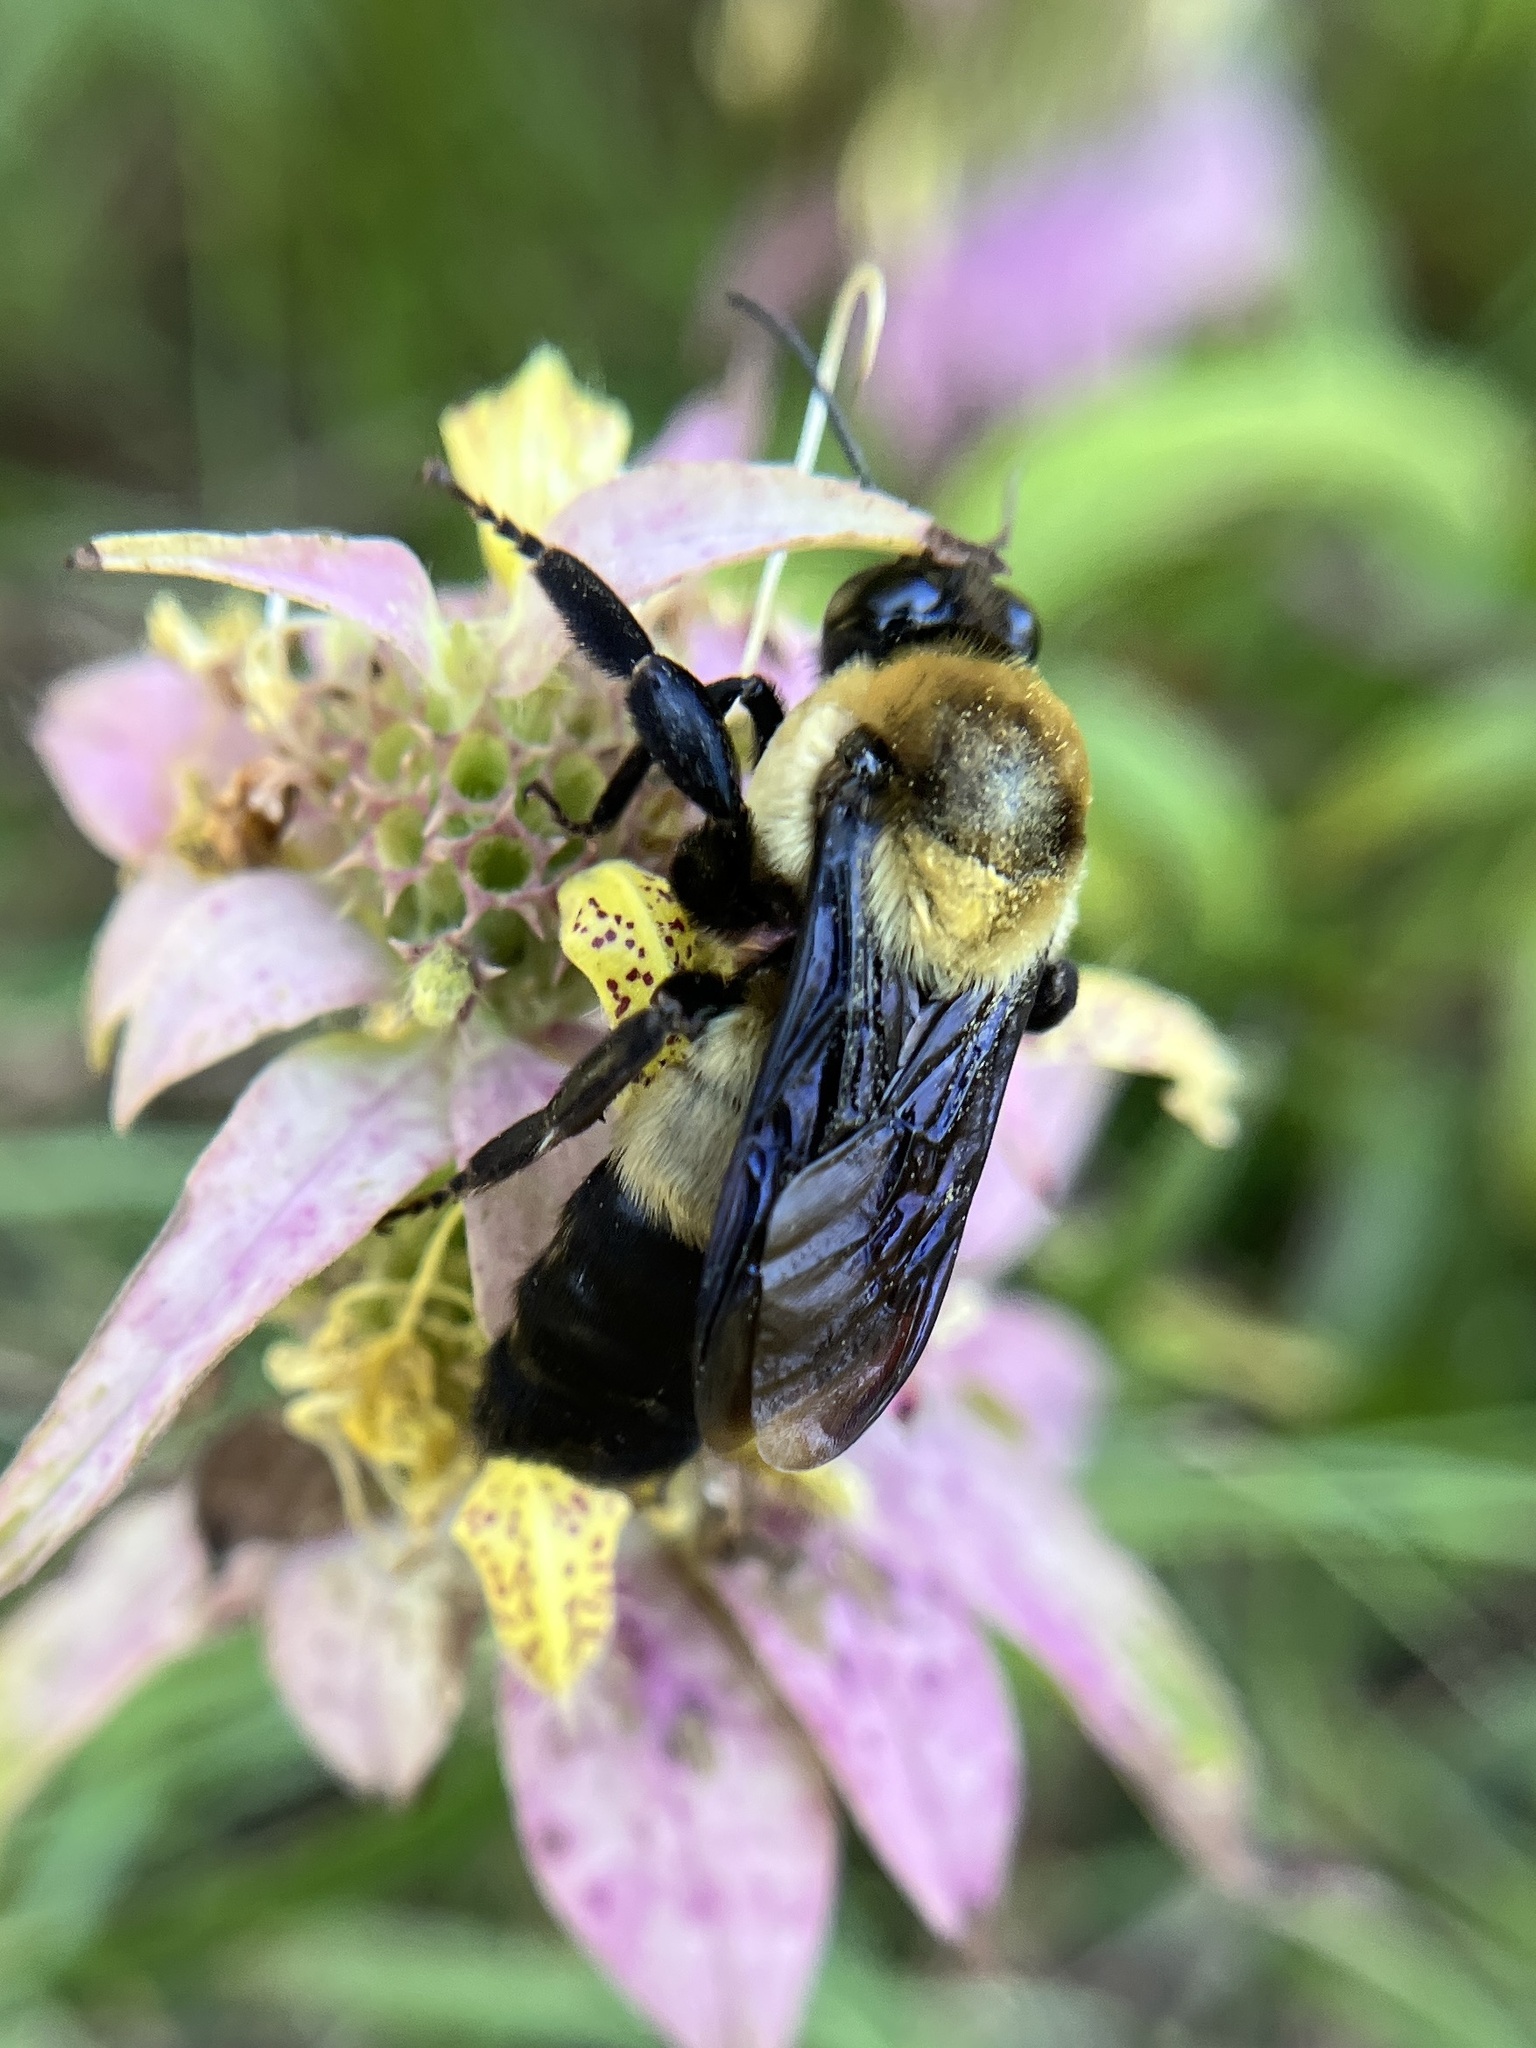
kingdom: Animalia
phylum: Arthropoda
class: Insecta
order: Hymenoptera
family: Apidae
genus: Bombus
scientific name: Bombus fraternus
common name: Southern plains bumble bee
